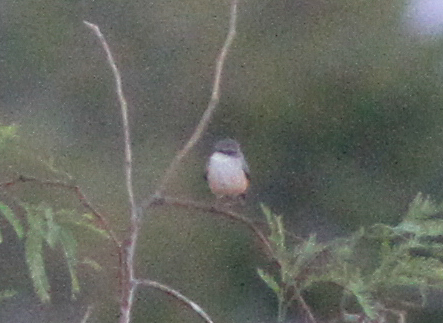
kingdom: Animalia
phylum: Chordata
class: Aves
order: Passeriformes
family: Tyrannidae
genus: Pyrocephalus
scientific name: Pyrocephalus rubinus
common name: Vermilion flycatcher
